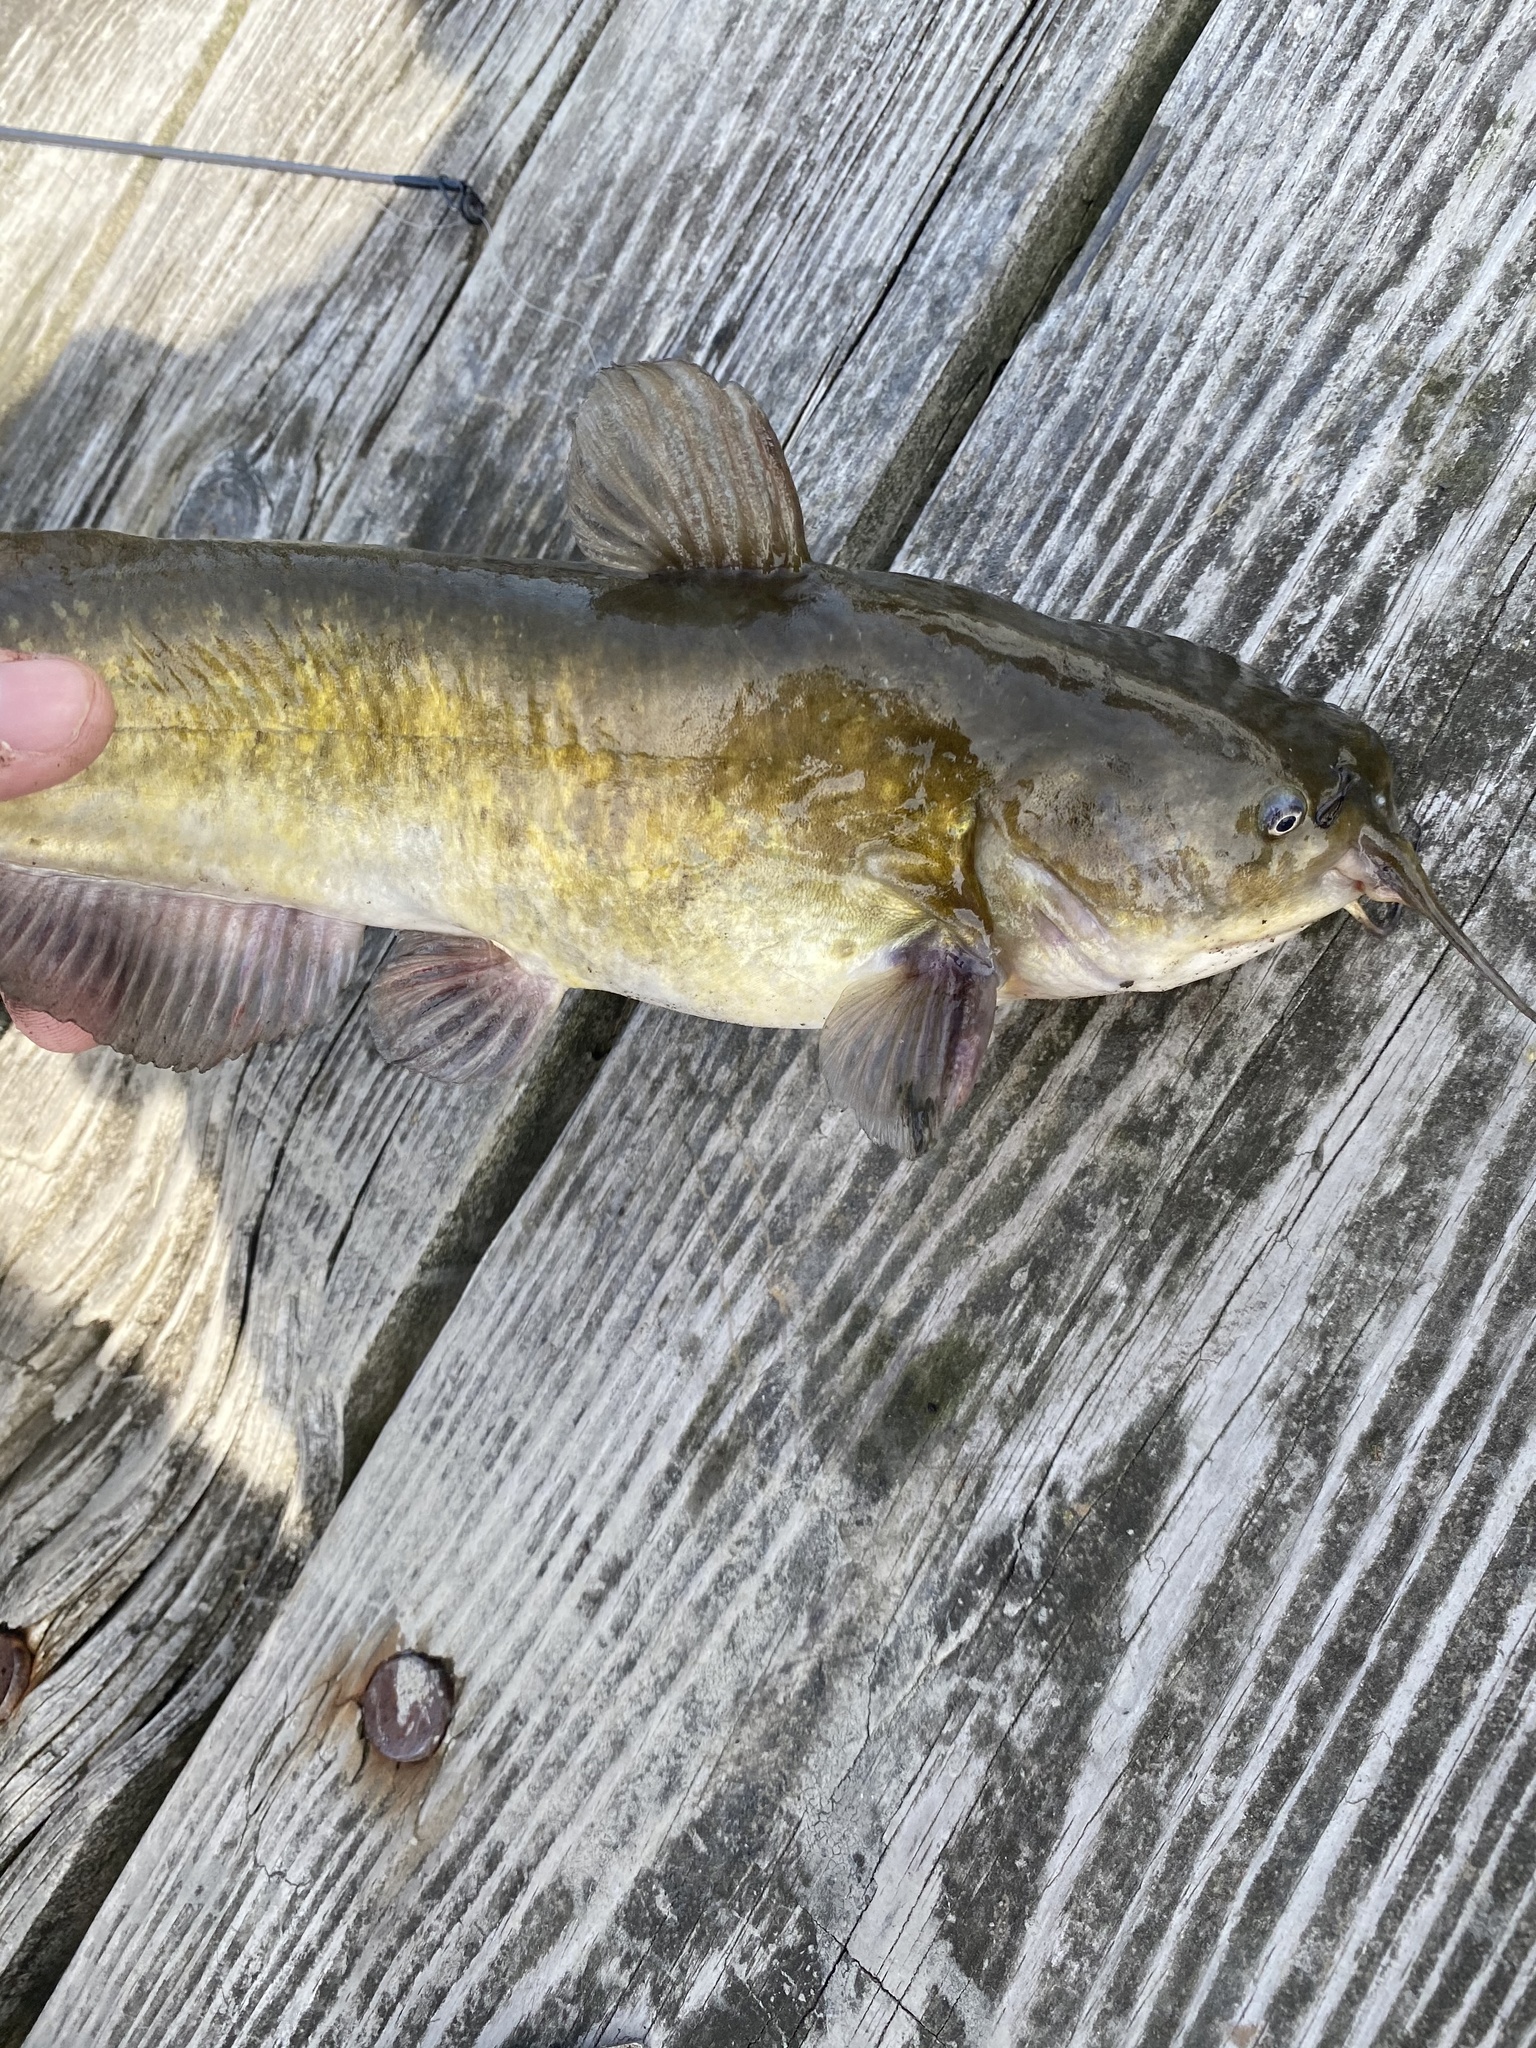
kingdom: Animalia
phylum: Chordata
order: Siluriformes
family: Ictaluridae
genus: Ameiurus
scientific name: Ameiurus nebulosus
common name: Brown bullhead
